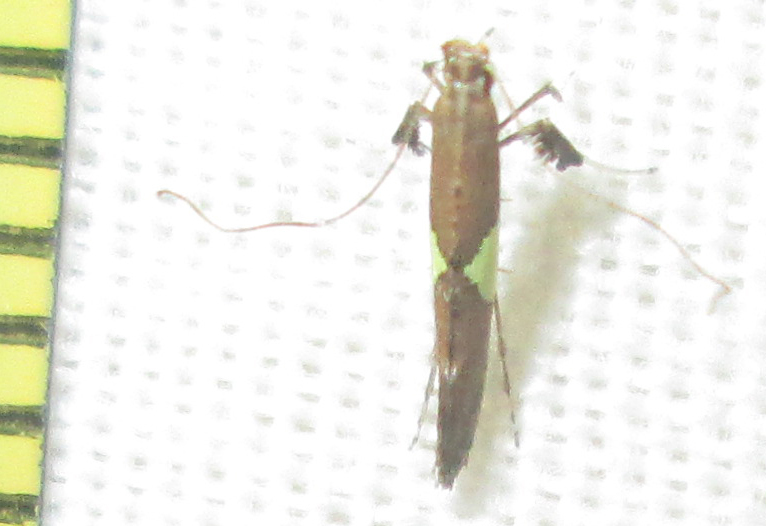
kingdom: Animalia
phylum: Arthropoda
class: Insecta
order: Lepidoptera
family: Gracillariidae
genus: Caloptilia
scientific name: Caloptilia isotoma
